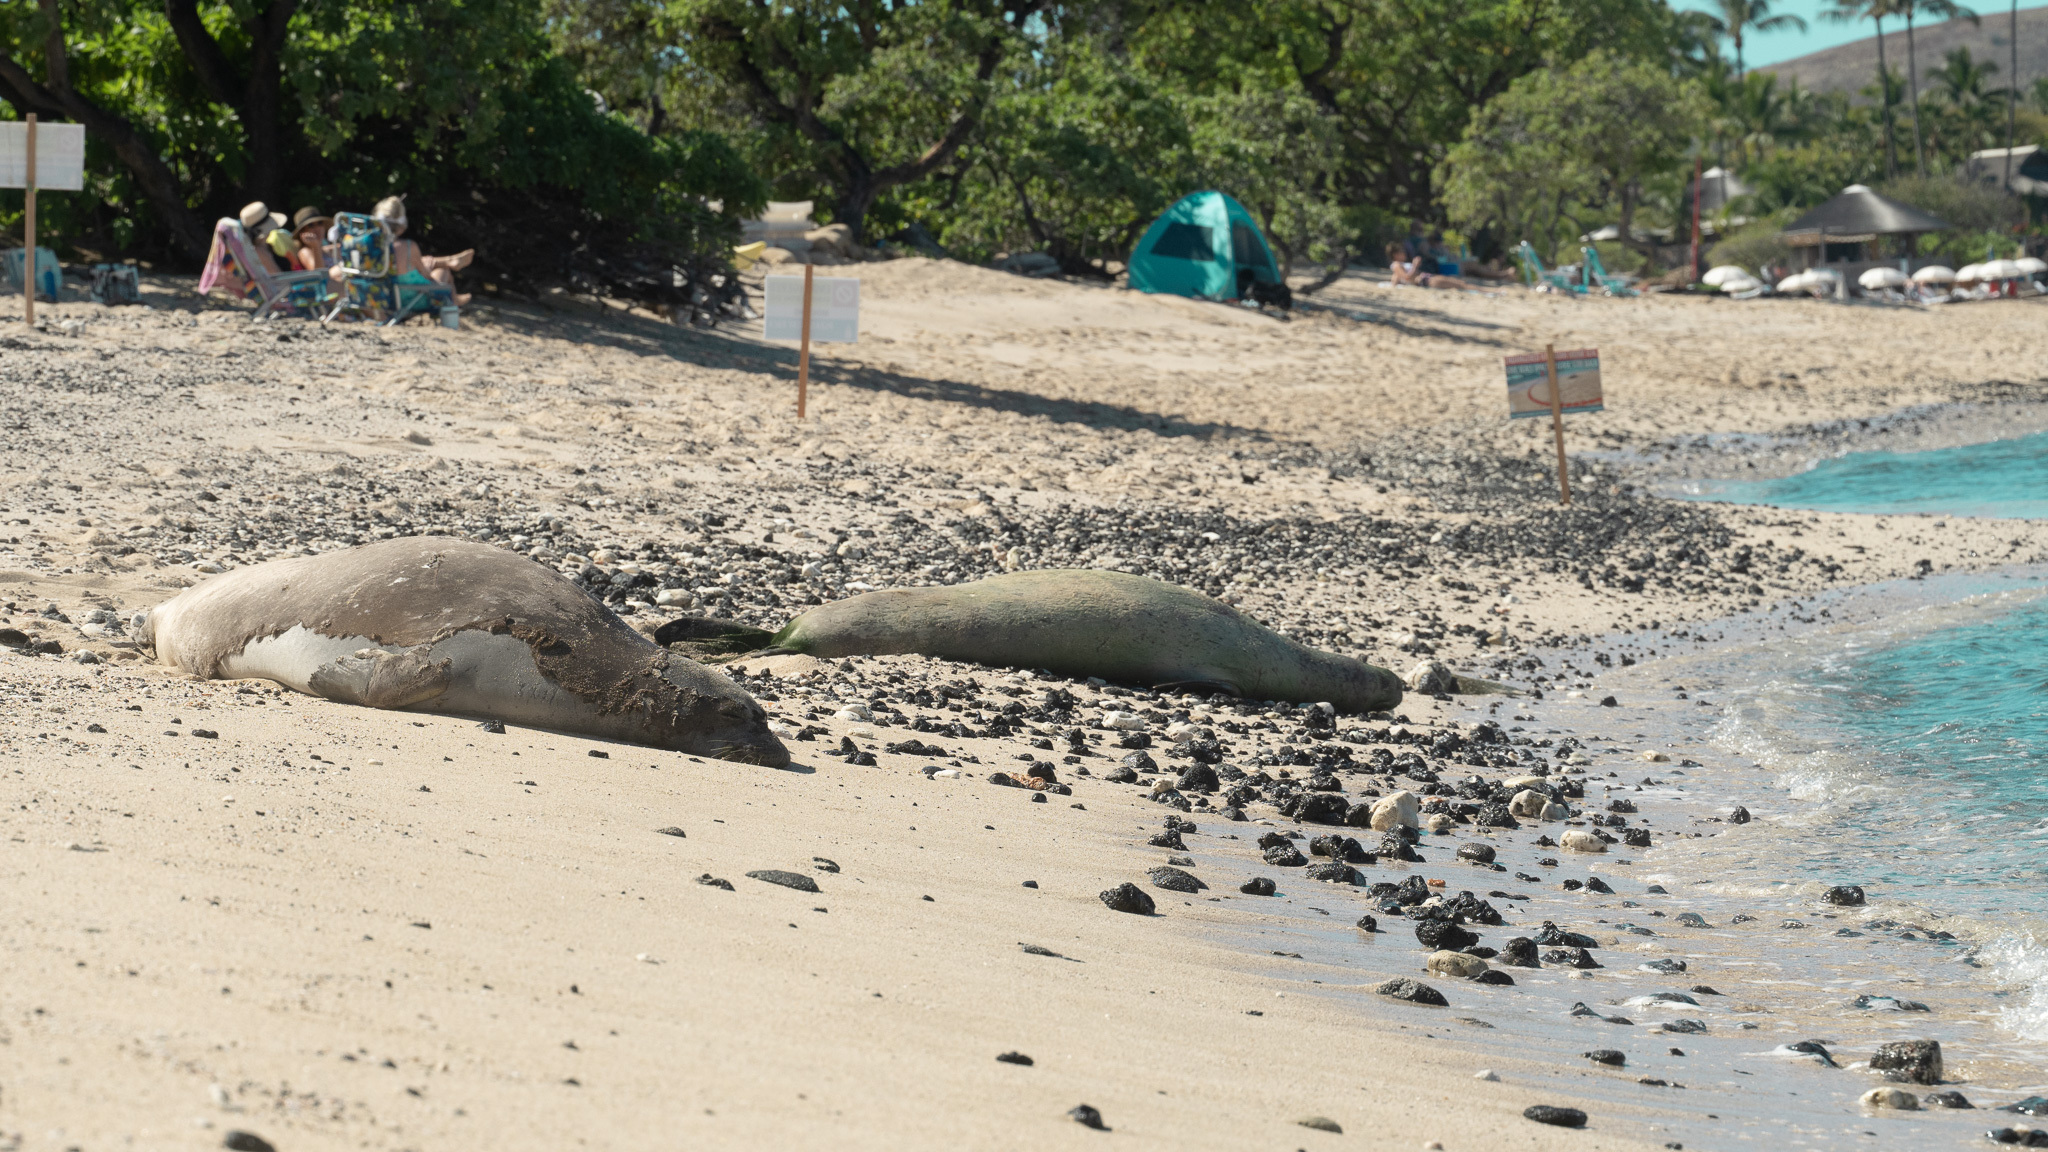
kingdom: Animalia
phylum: Chordata
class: Mammalia
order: Carnivora
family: Phocidae
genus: Neomonachus
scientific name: Neomonachus schauinslandi
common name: Hawaiian monk seal
